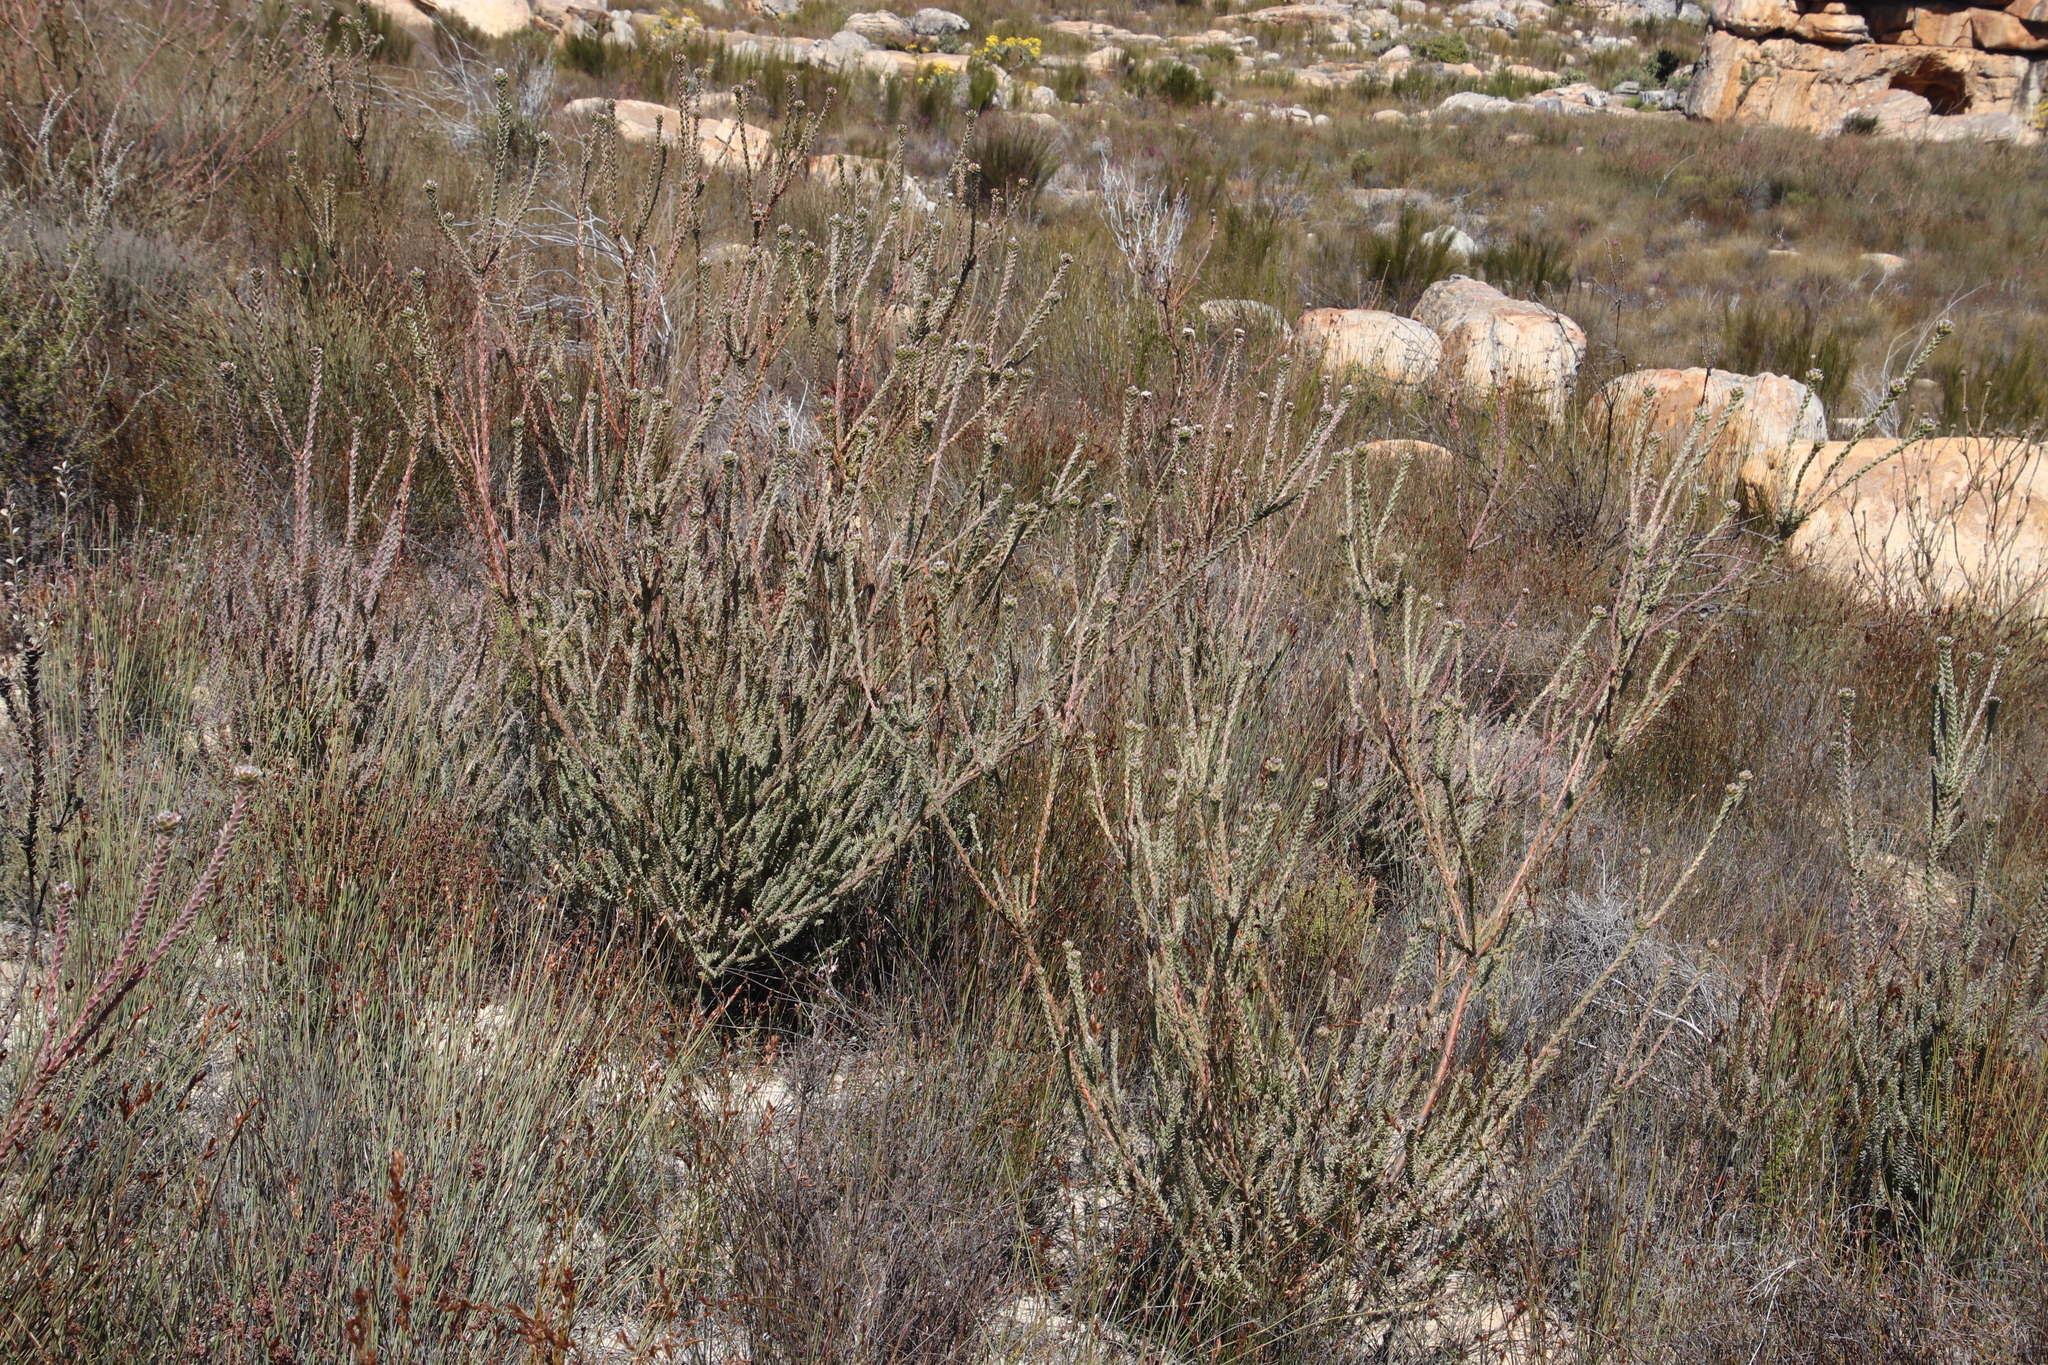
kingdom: Plantae
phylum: Tracheophyta
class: Magnoliopsida
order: Proteales
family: Proteaceae
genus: Leucadendron
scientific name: Leucadendron concavum
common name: Pakhuis conebush
